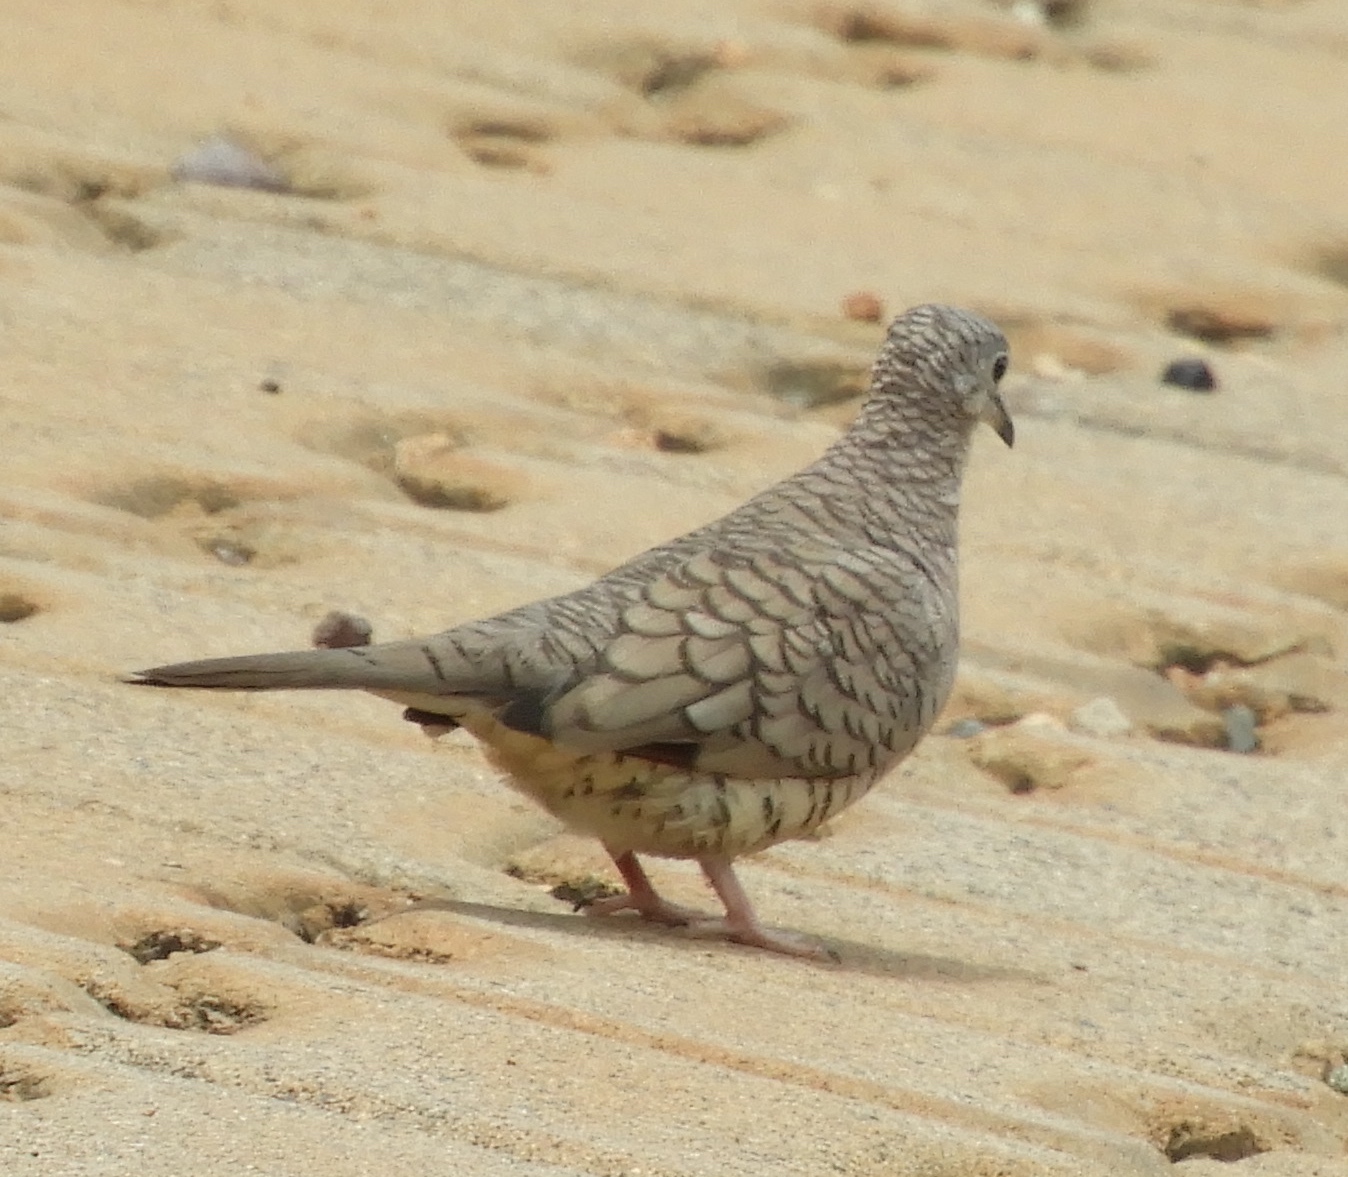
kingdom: Animalia
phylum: Chordata
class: Aves
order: Columbiformes
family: Columbidae
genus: Columbina
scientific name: Columbina inca
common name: Inca dove
